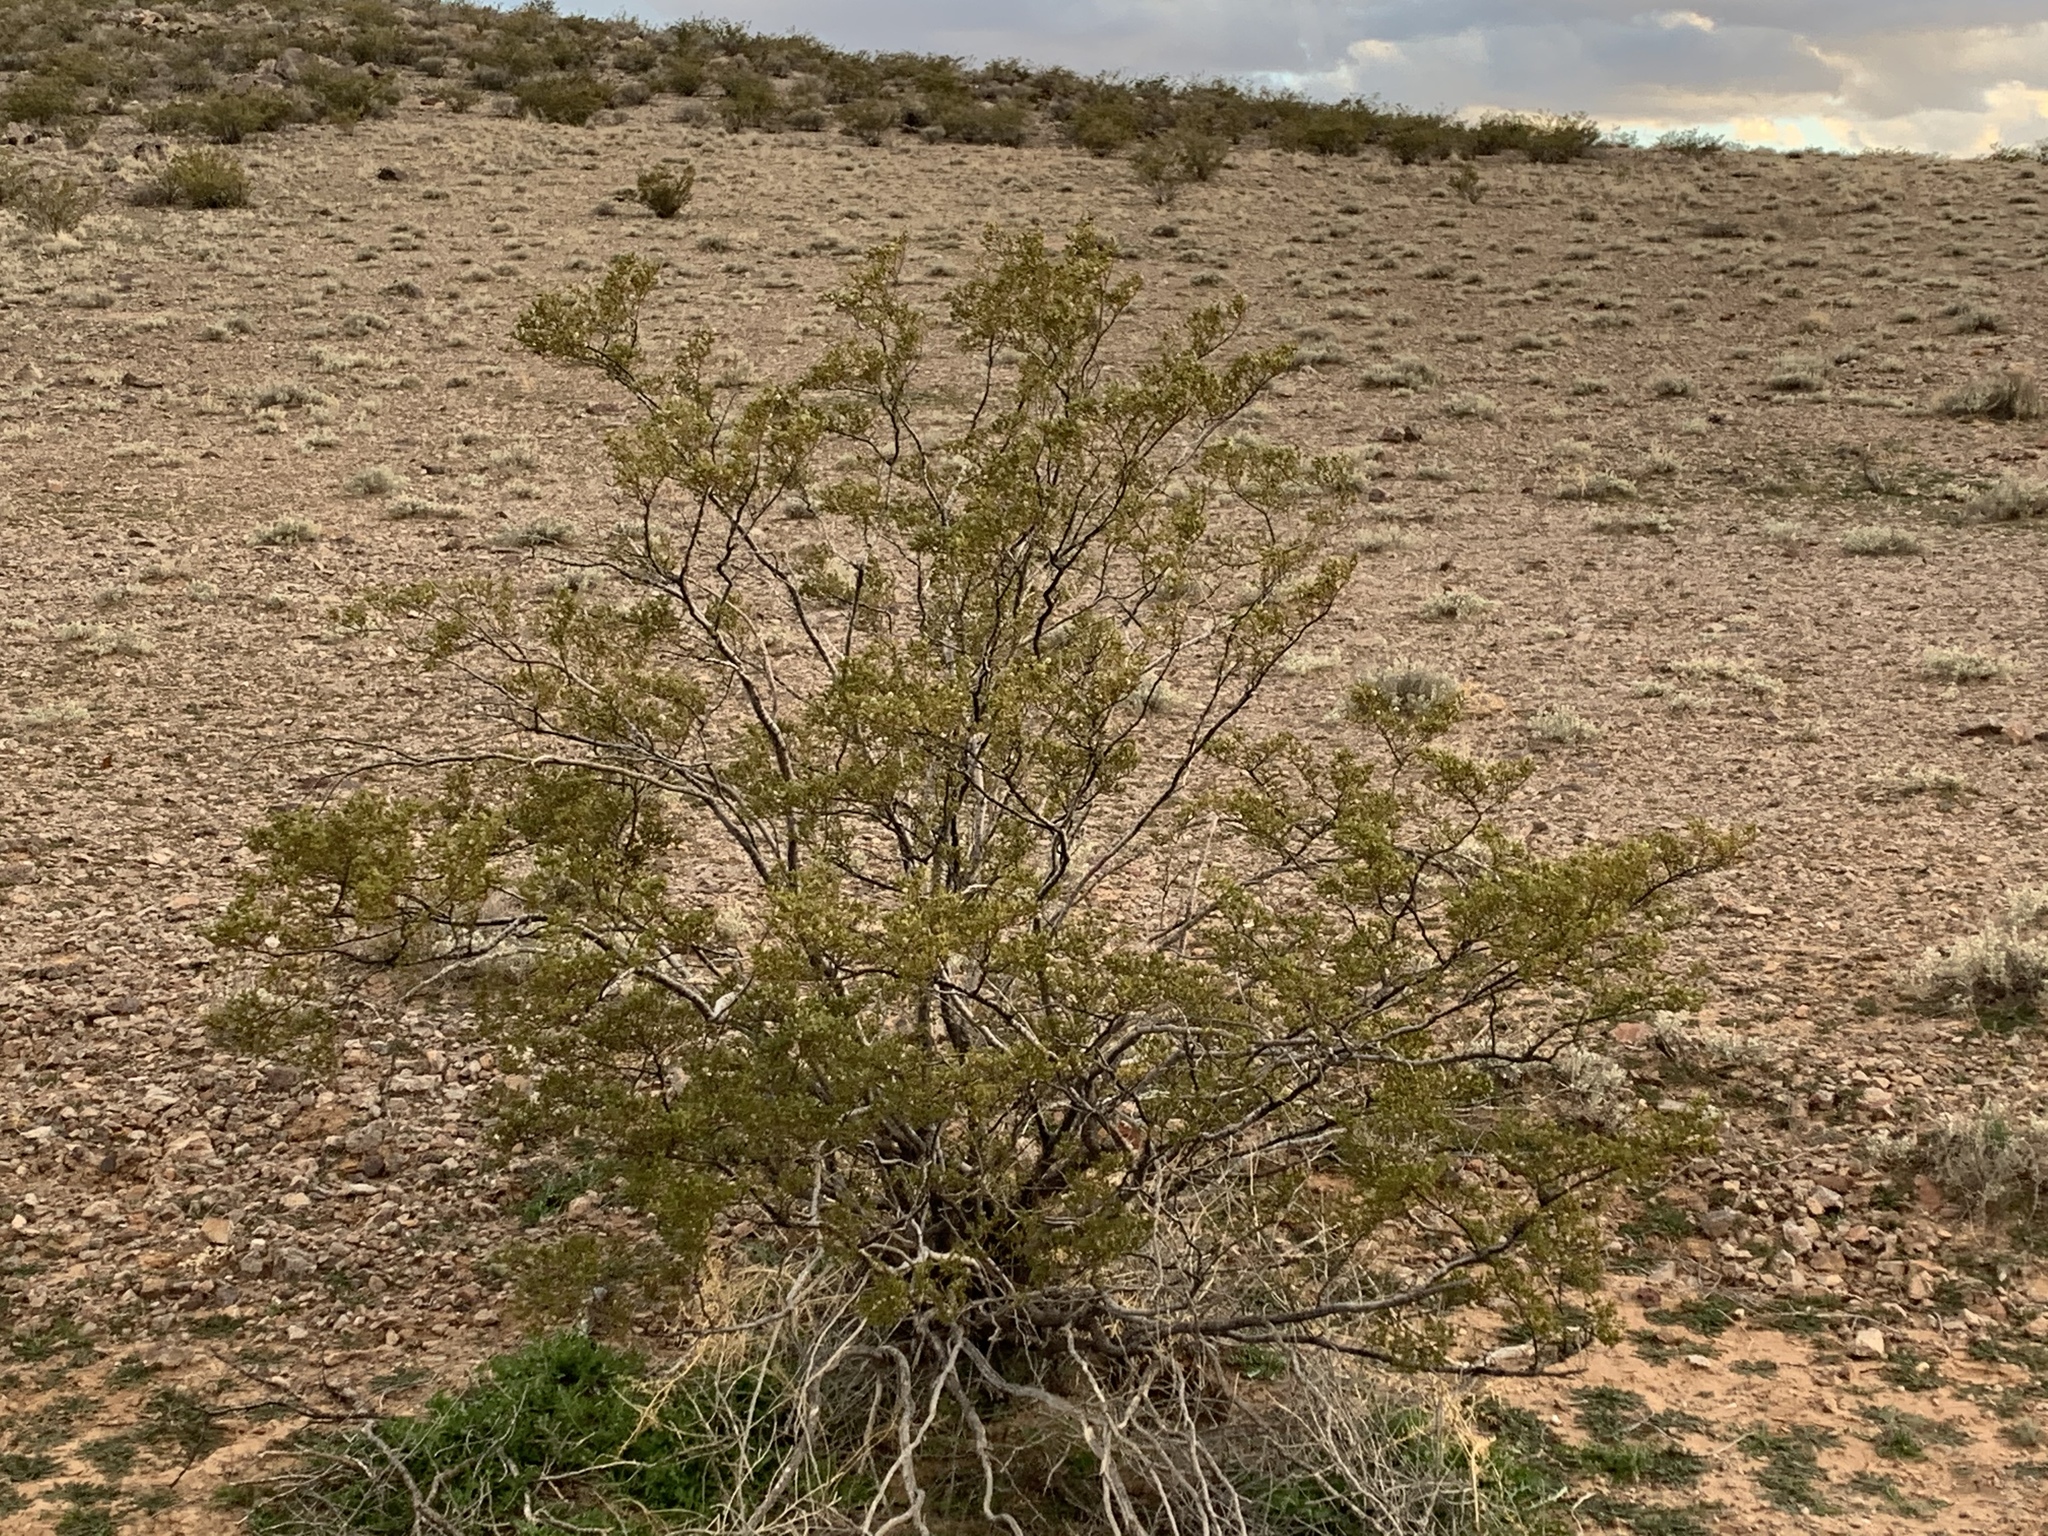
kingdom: Plantae
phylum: Tracheophyta
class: Magnoliopsida
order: Zygophyllales
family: Zygophyllaceae
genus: Larrea
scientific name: Larrea tridentata
